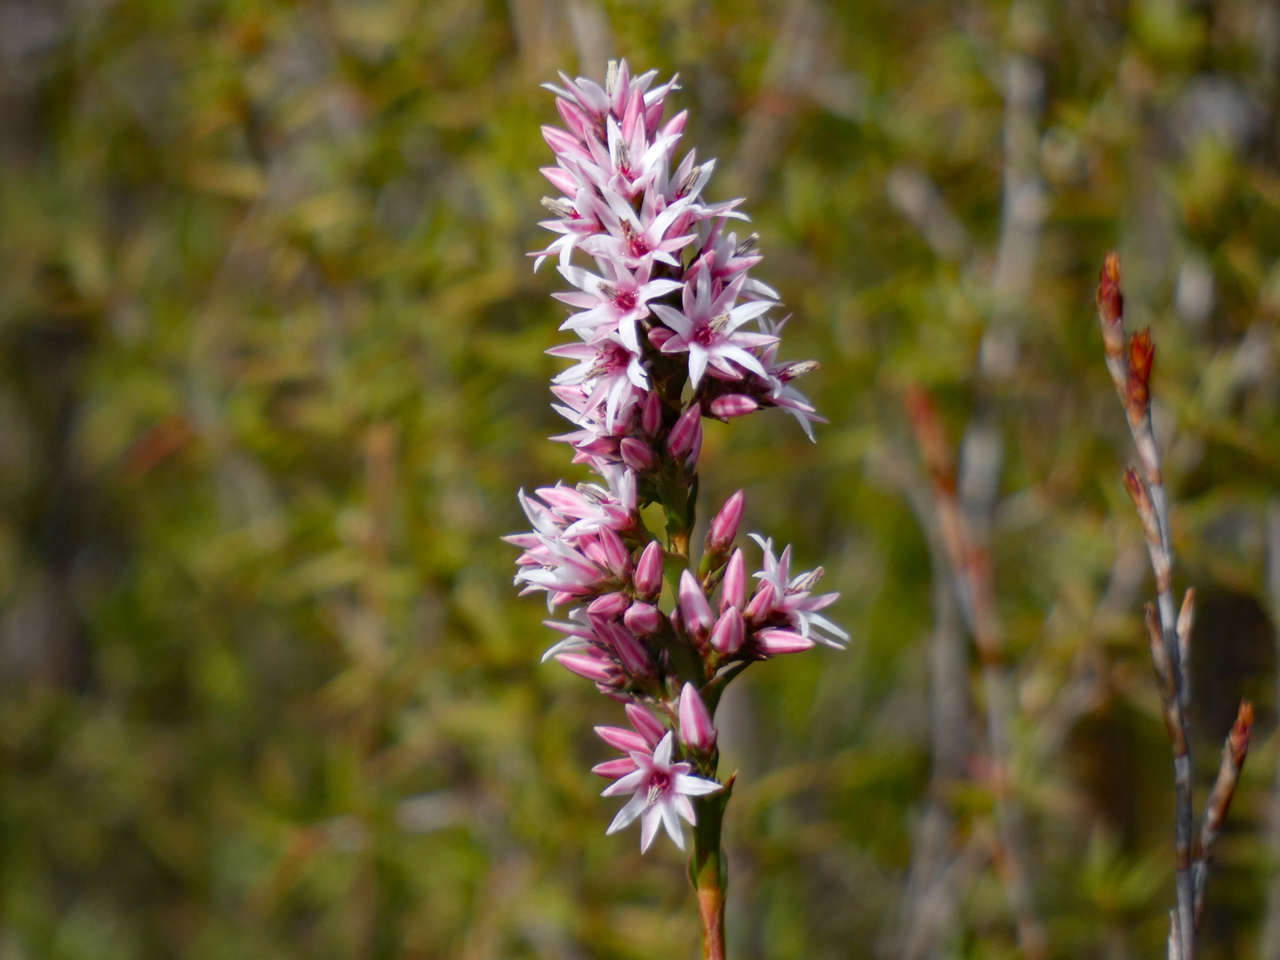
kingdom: Plantae
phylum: Tracheophyta
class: Magnoliopsida
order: Ericales
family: Ericaceae
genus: Sprengelia
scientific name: Sprengelia incarnata
